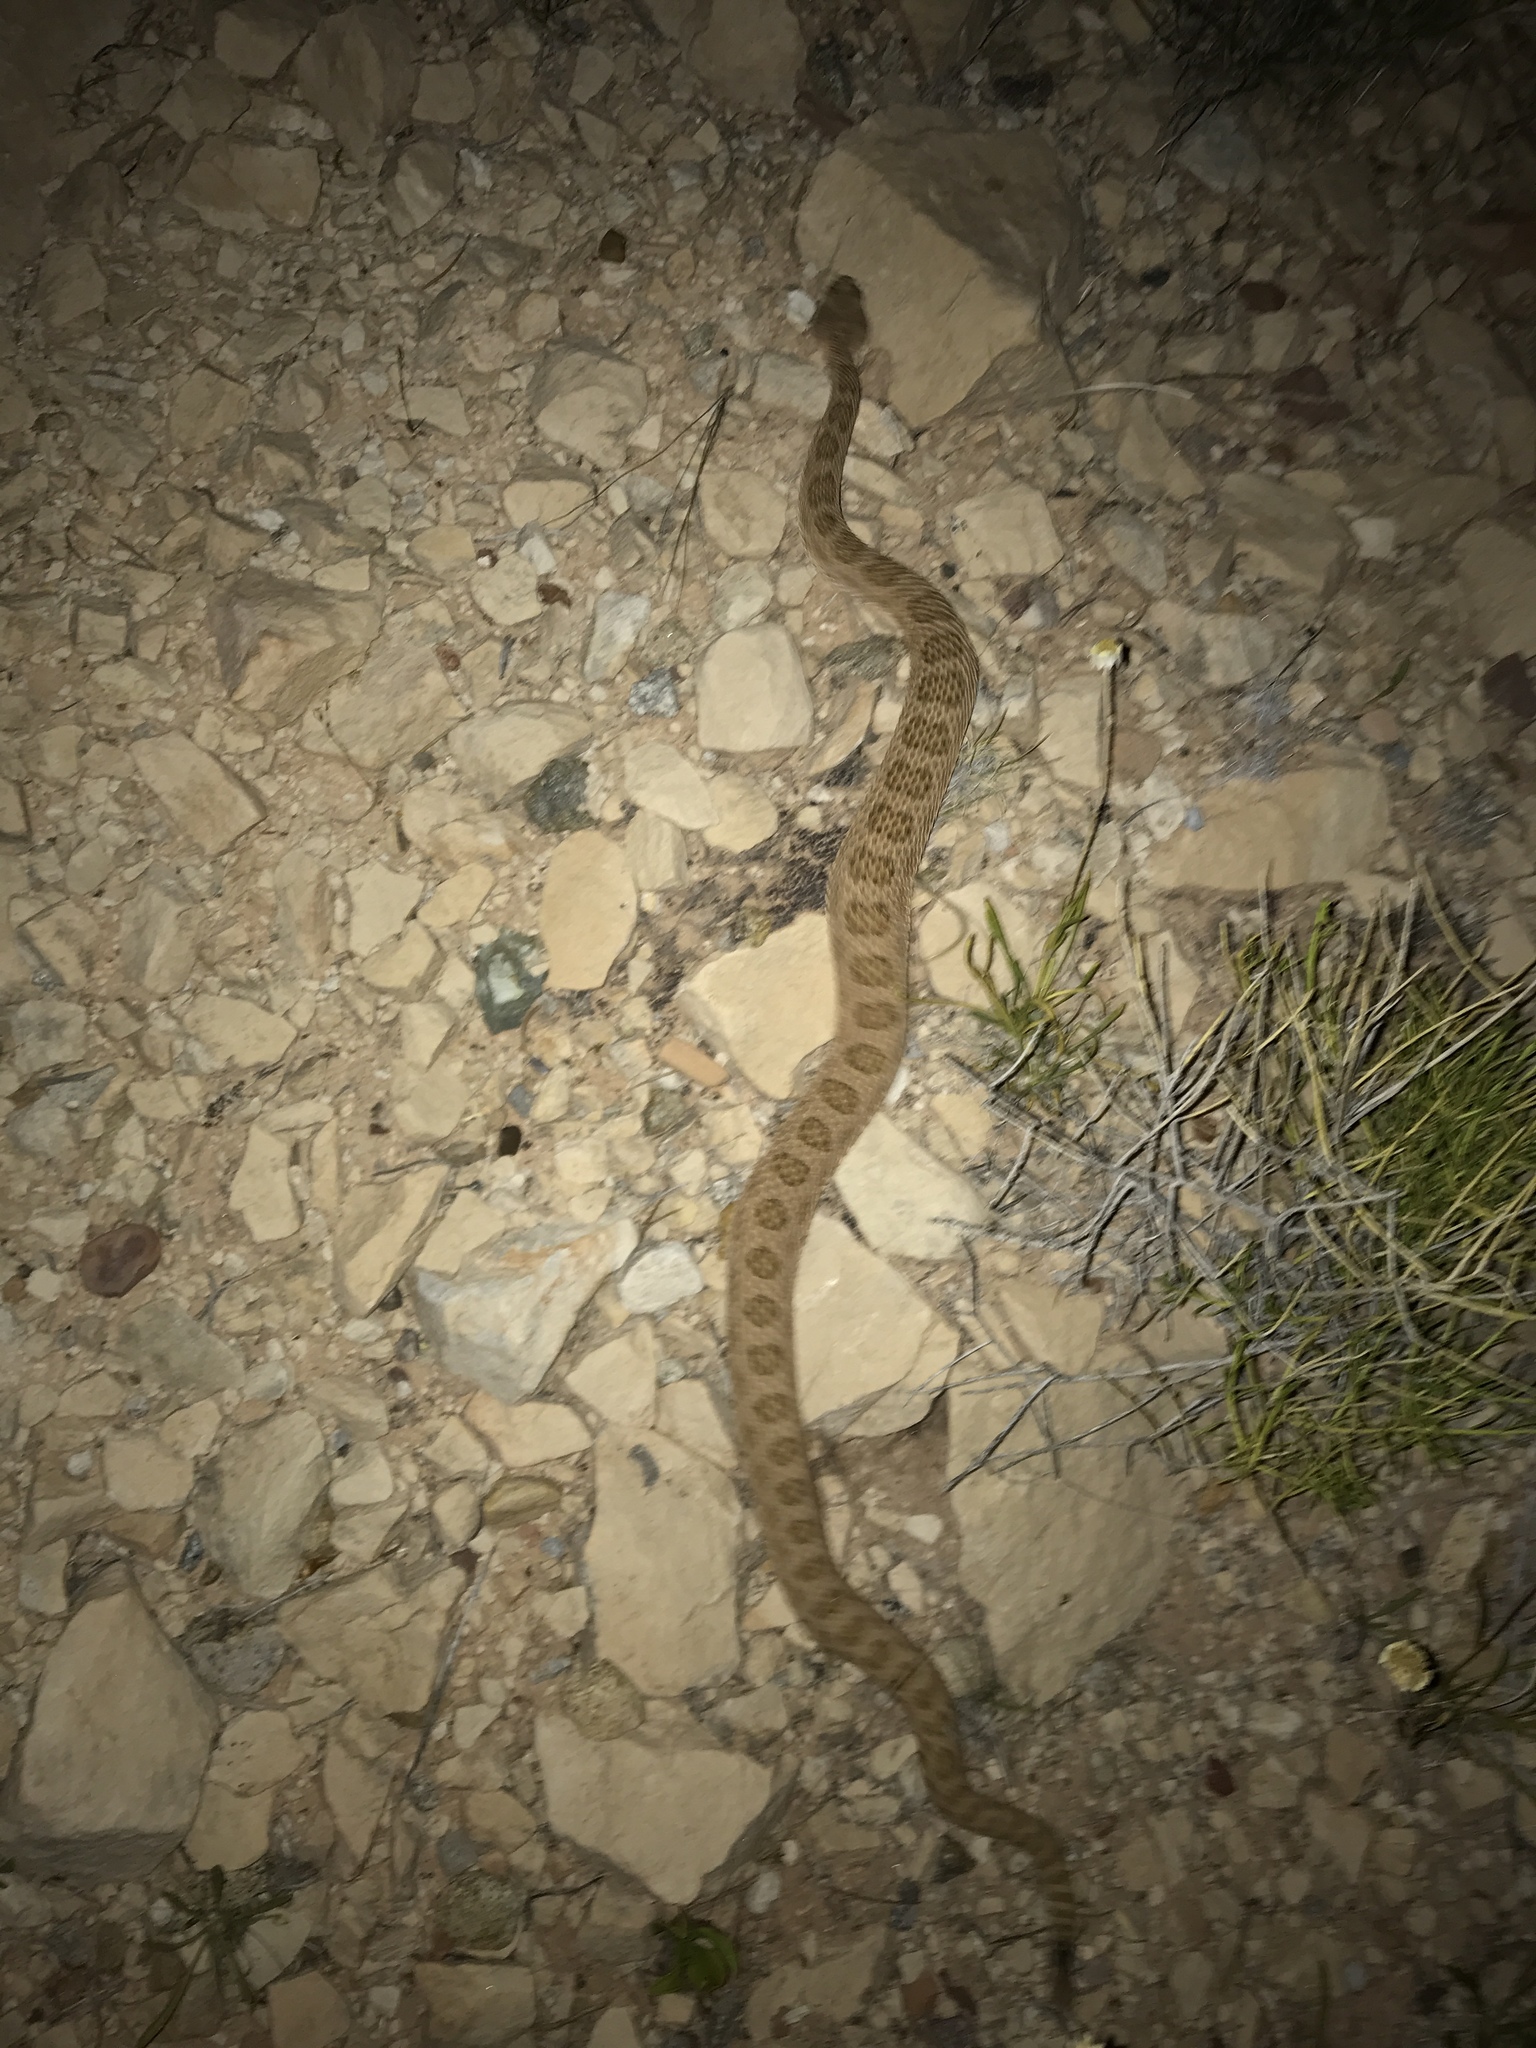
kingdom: Animalia
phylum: Chordata
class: Squamata
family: Viperidae
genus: Crotalus
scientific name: Crotalus oreganus
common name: Abyssus
